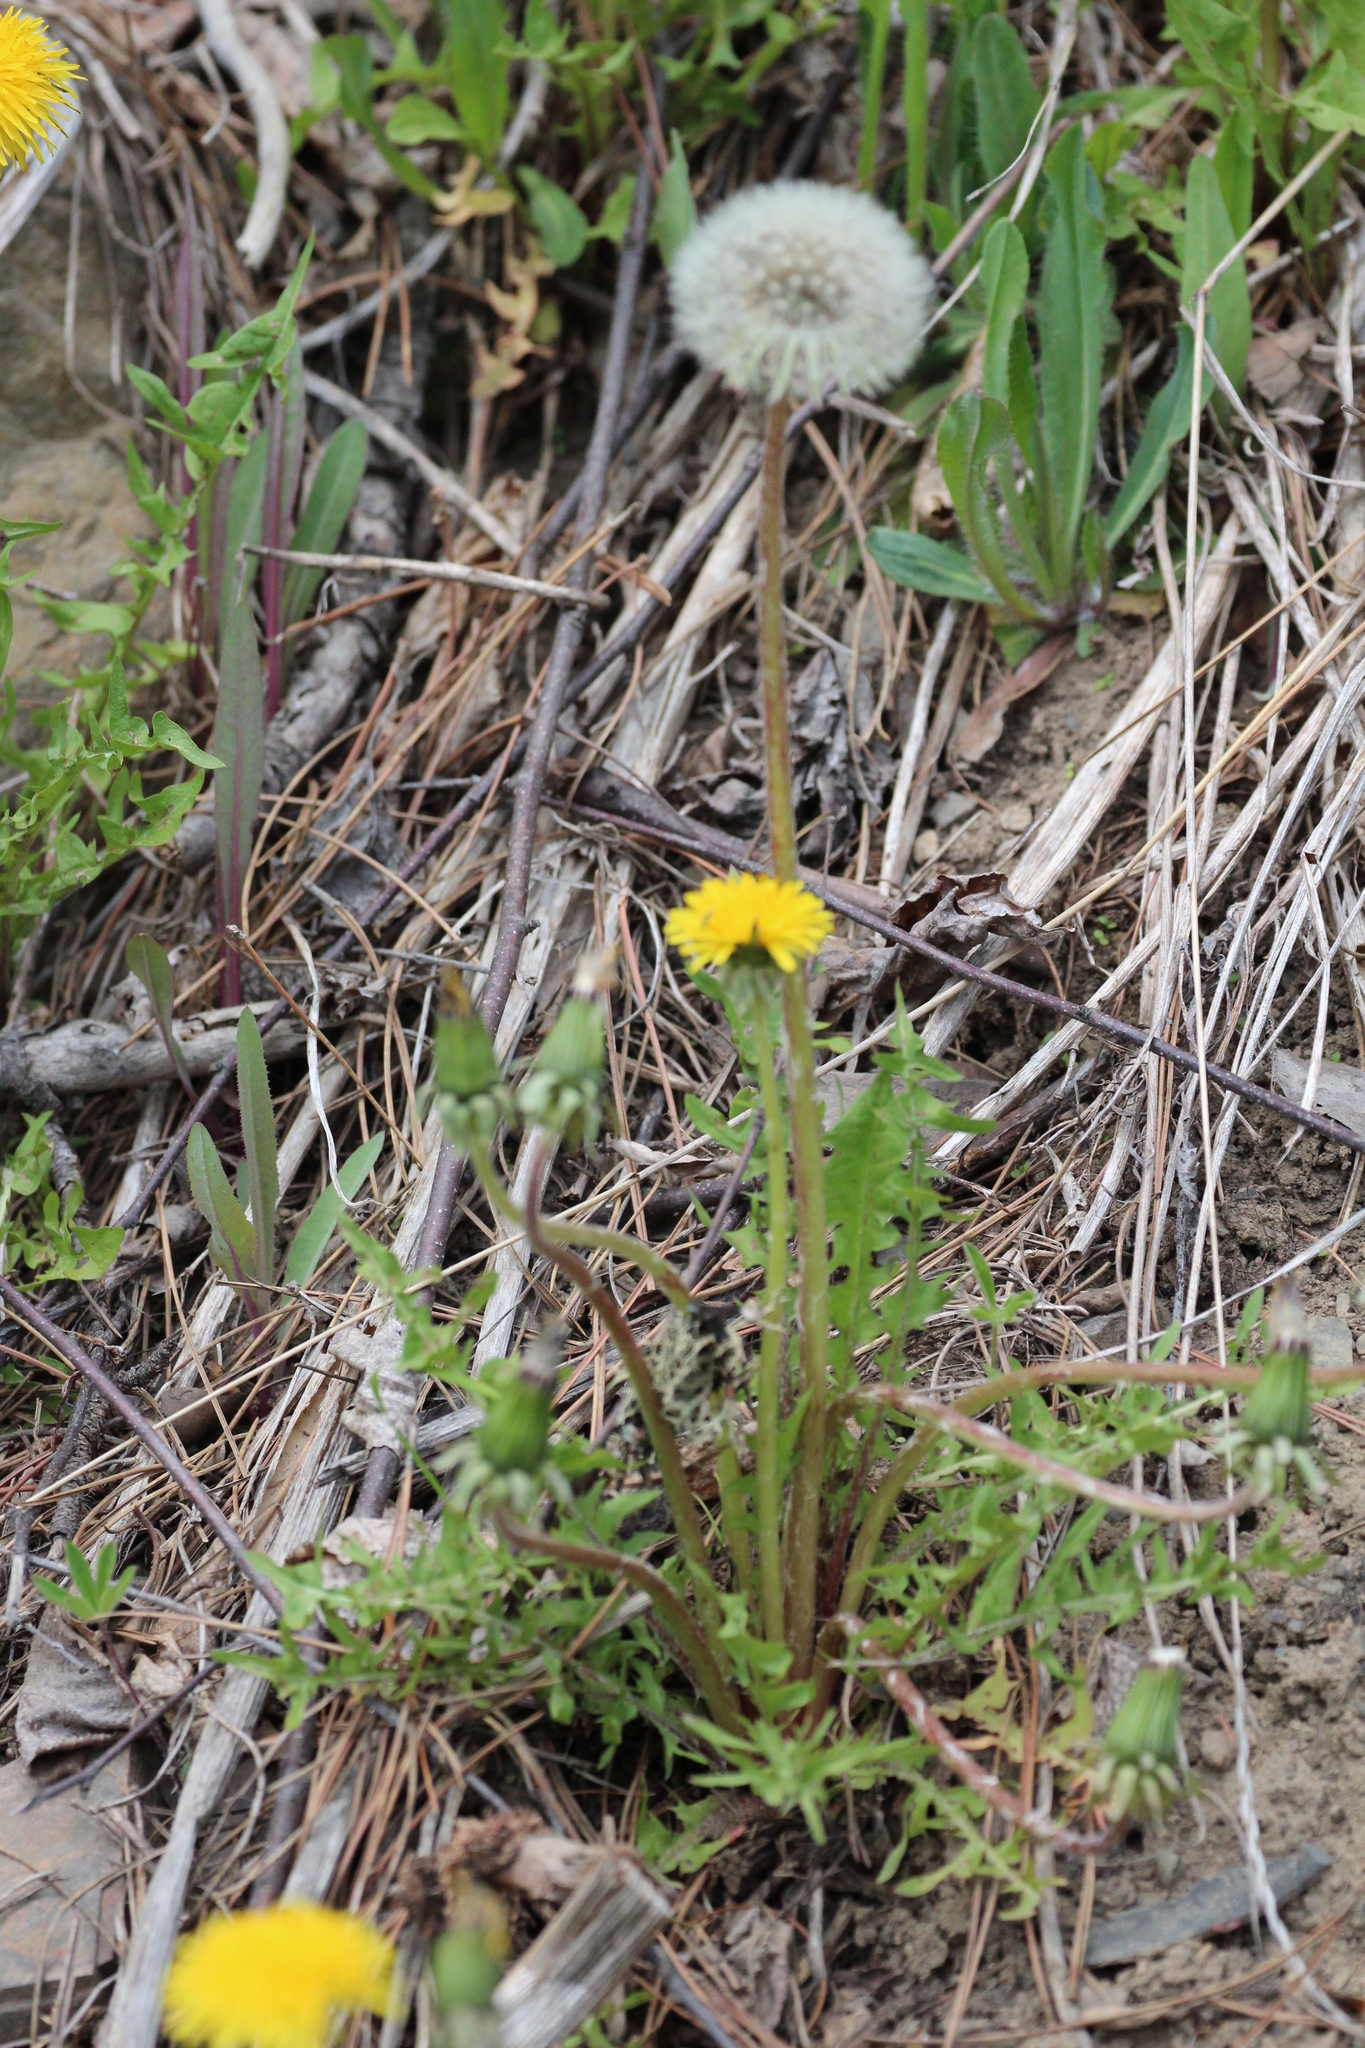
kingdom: Plantae
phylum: Tracheophyta
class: Magnoliopsida
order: Asterales
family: Asteraceae
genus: Taraxacum
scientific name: Taraxacum officinale
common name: Common dandelion
